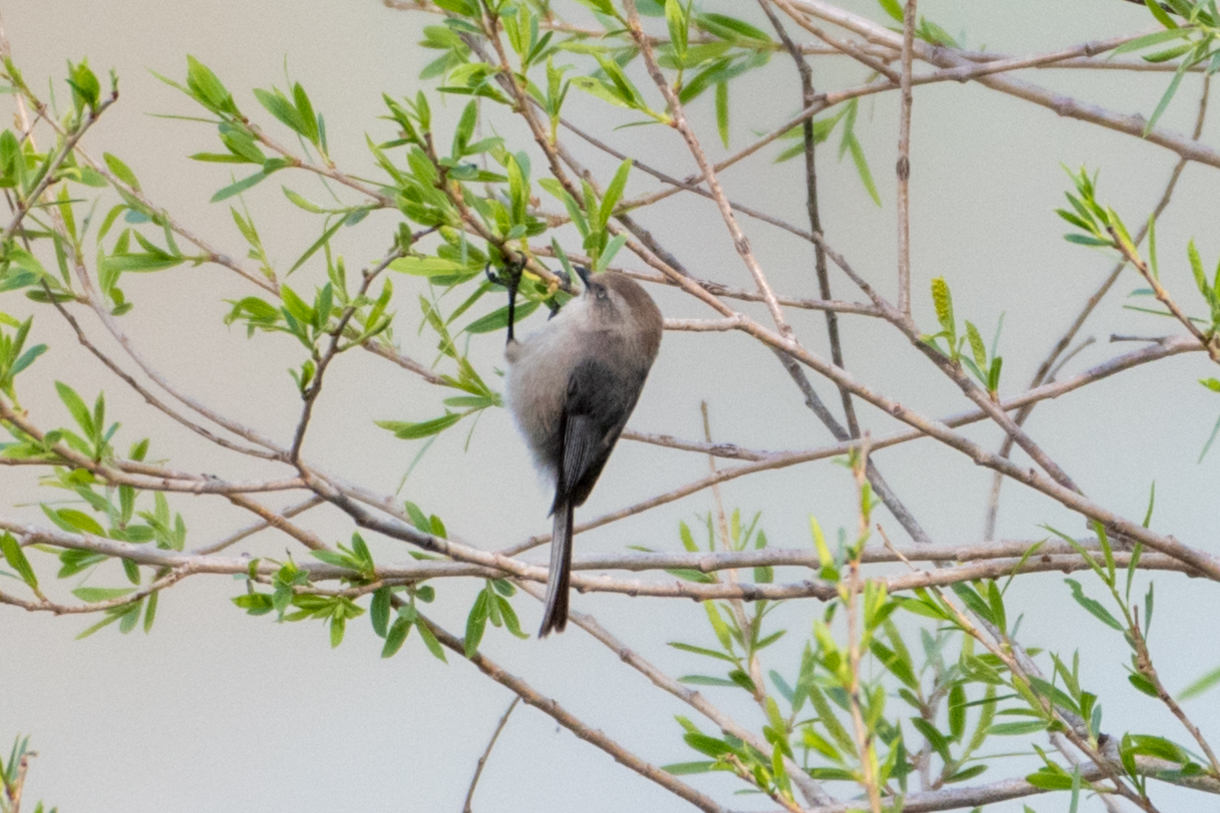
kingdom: Animalia
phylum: Chordata
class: Aves
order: Passeriformes
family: Aegithalidae
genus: Psaltriparus
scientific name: Psaltriparus minimus
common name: American bushtit
